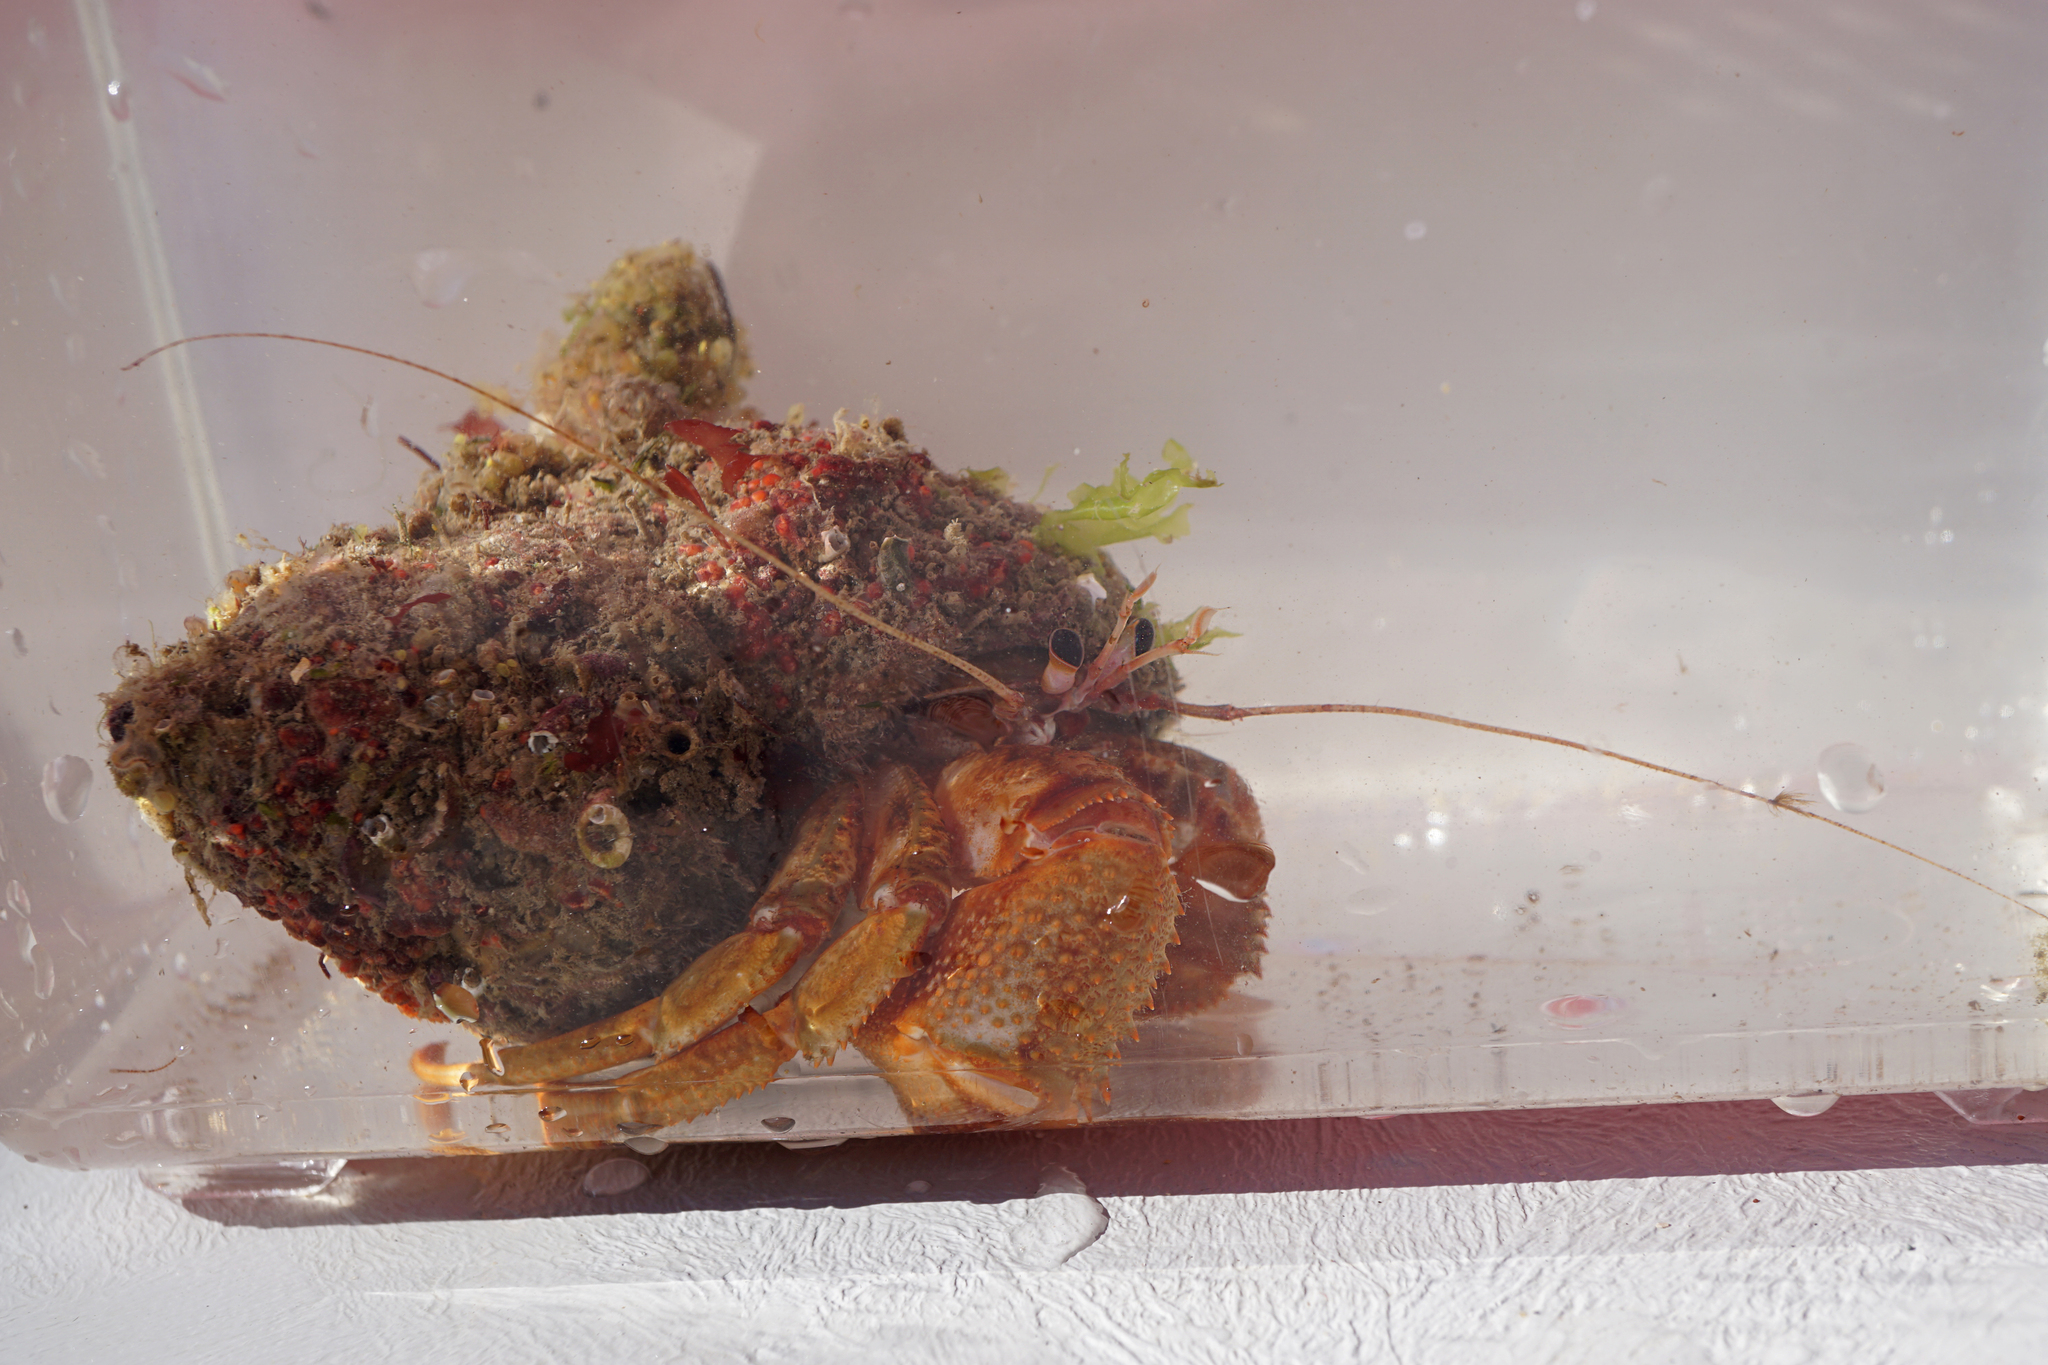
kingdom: Animalia
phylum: Arthropoda
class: Malacostraca
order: Decapoda
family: Paguridae
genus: Pagurus
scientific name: Pagurus bernhardus
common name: Hermit crab
